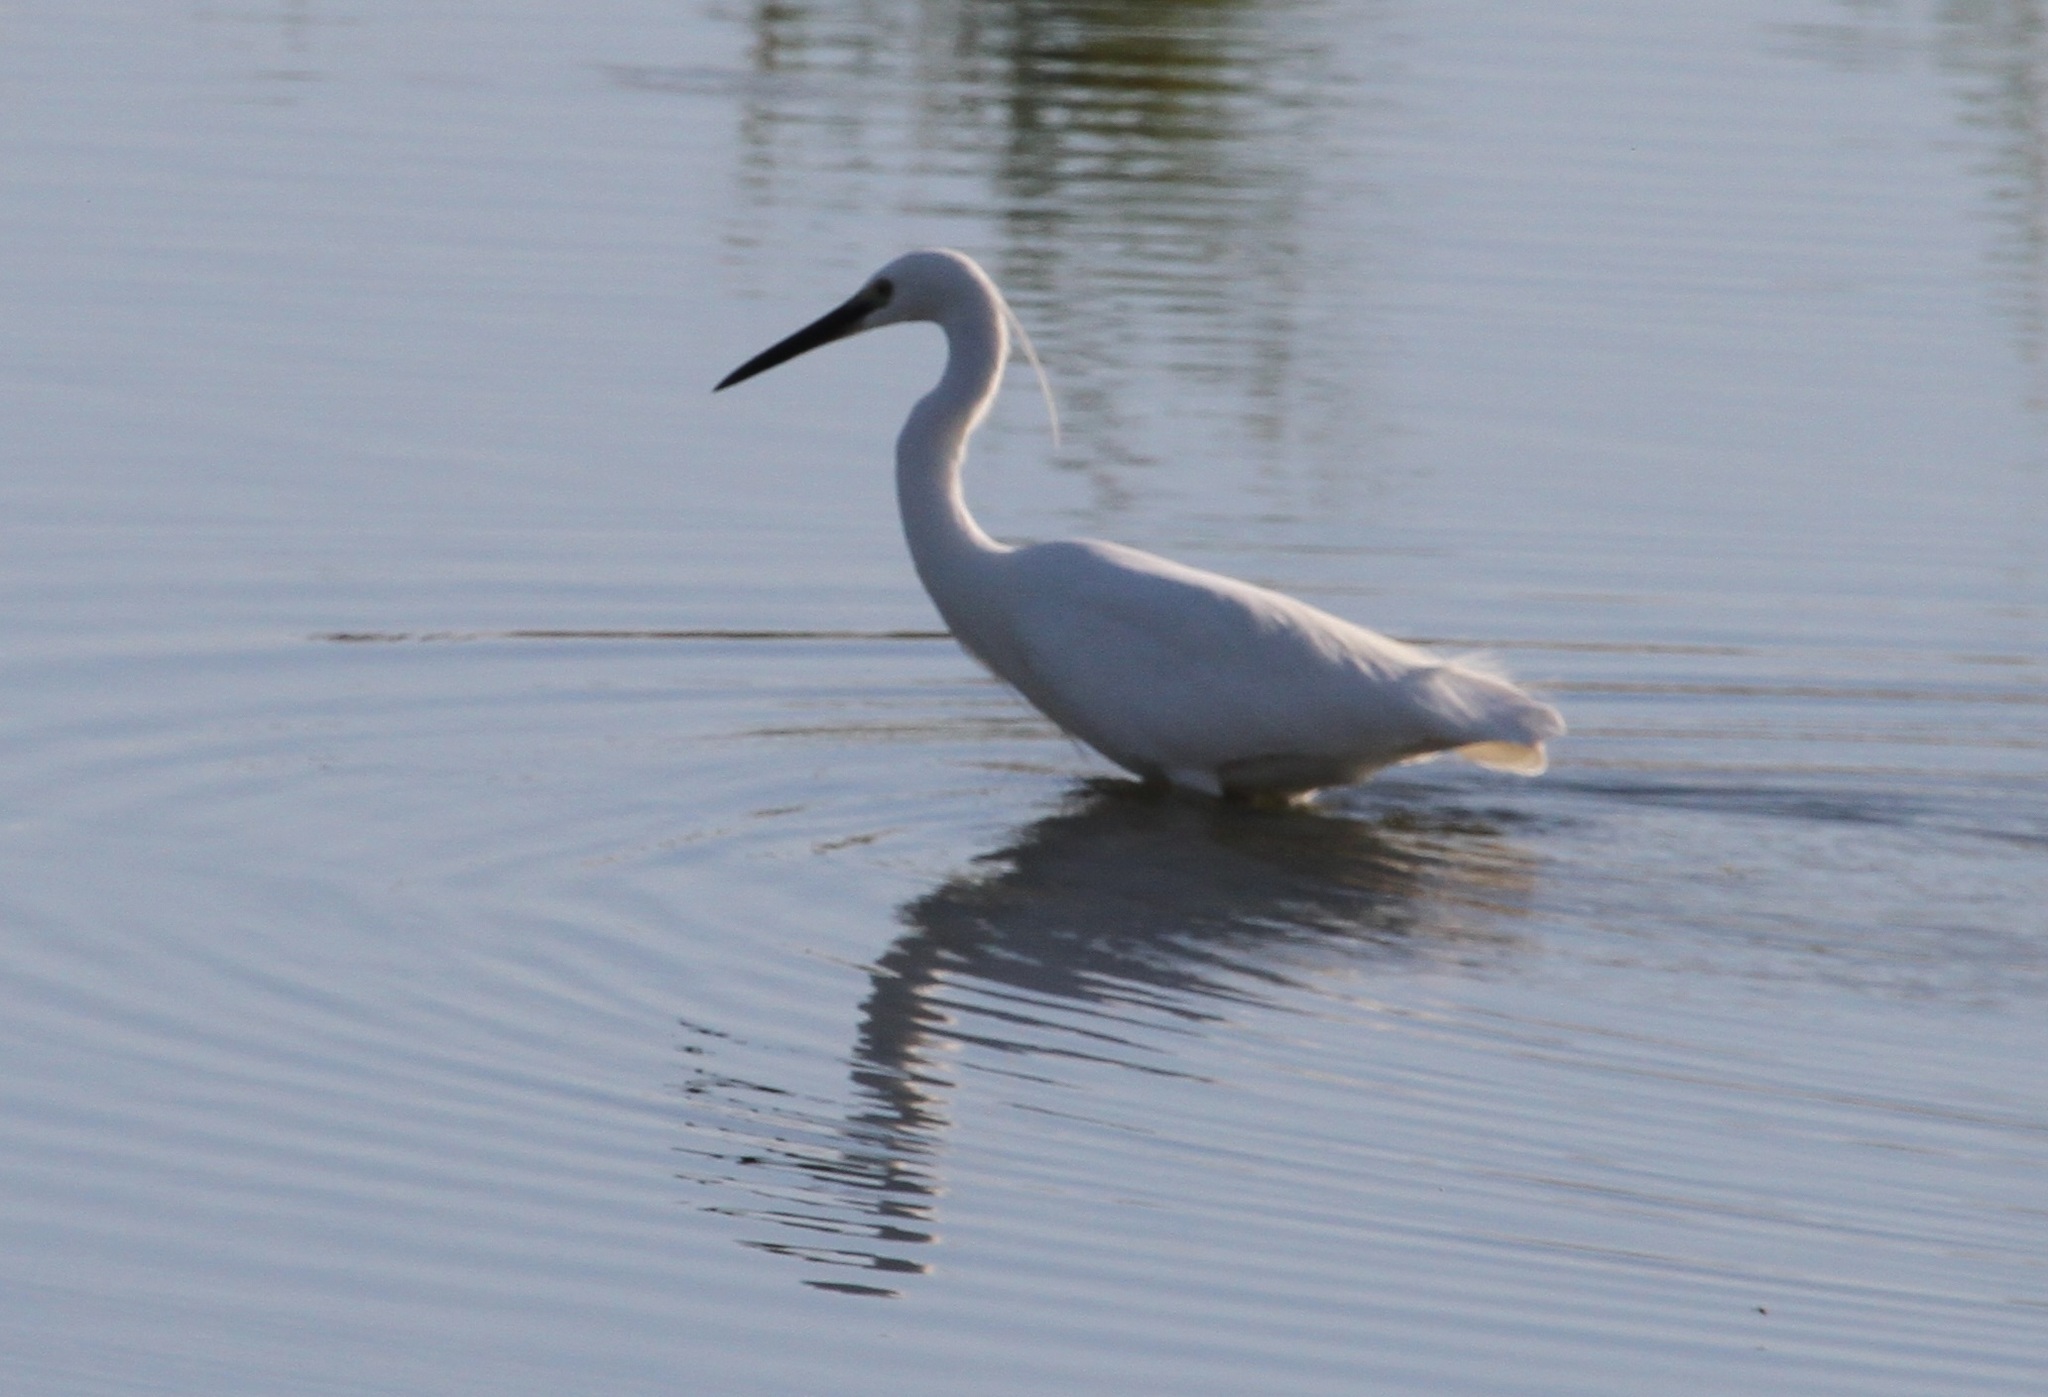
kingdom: Animalia
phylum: Chordata
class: Aves
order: Pelecaniformes
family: Ardeidae
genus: Egretta
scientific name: Egretta garzetta
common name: Little egret
